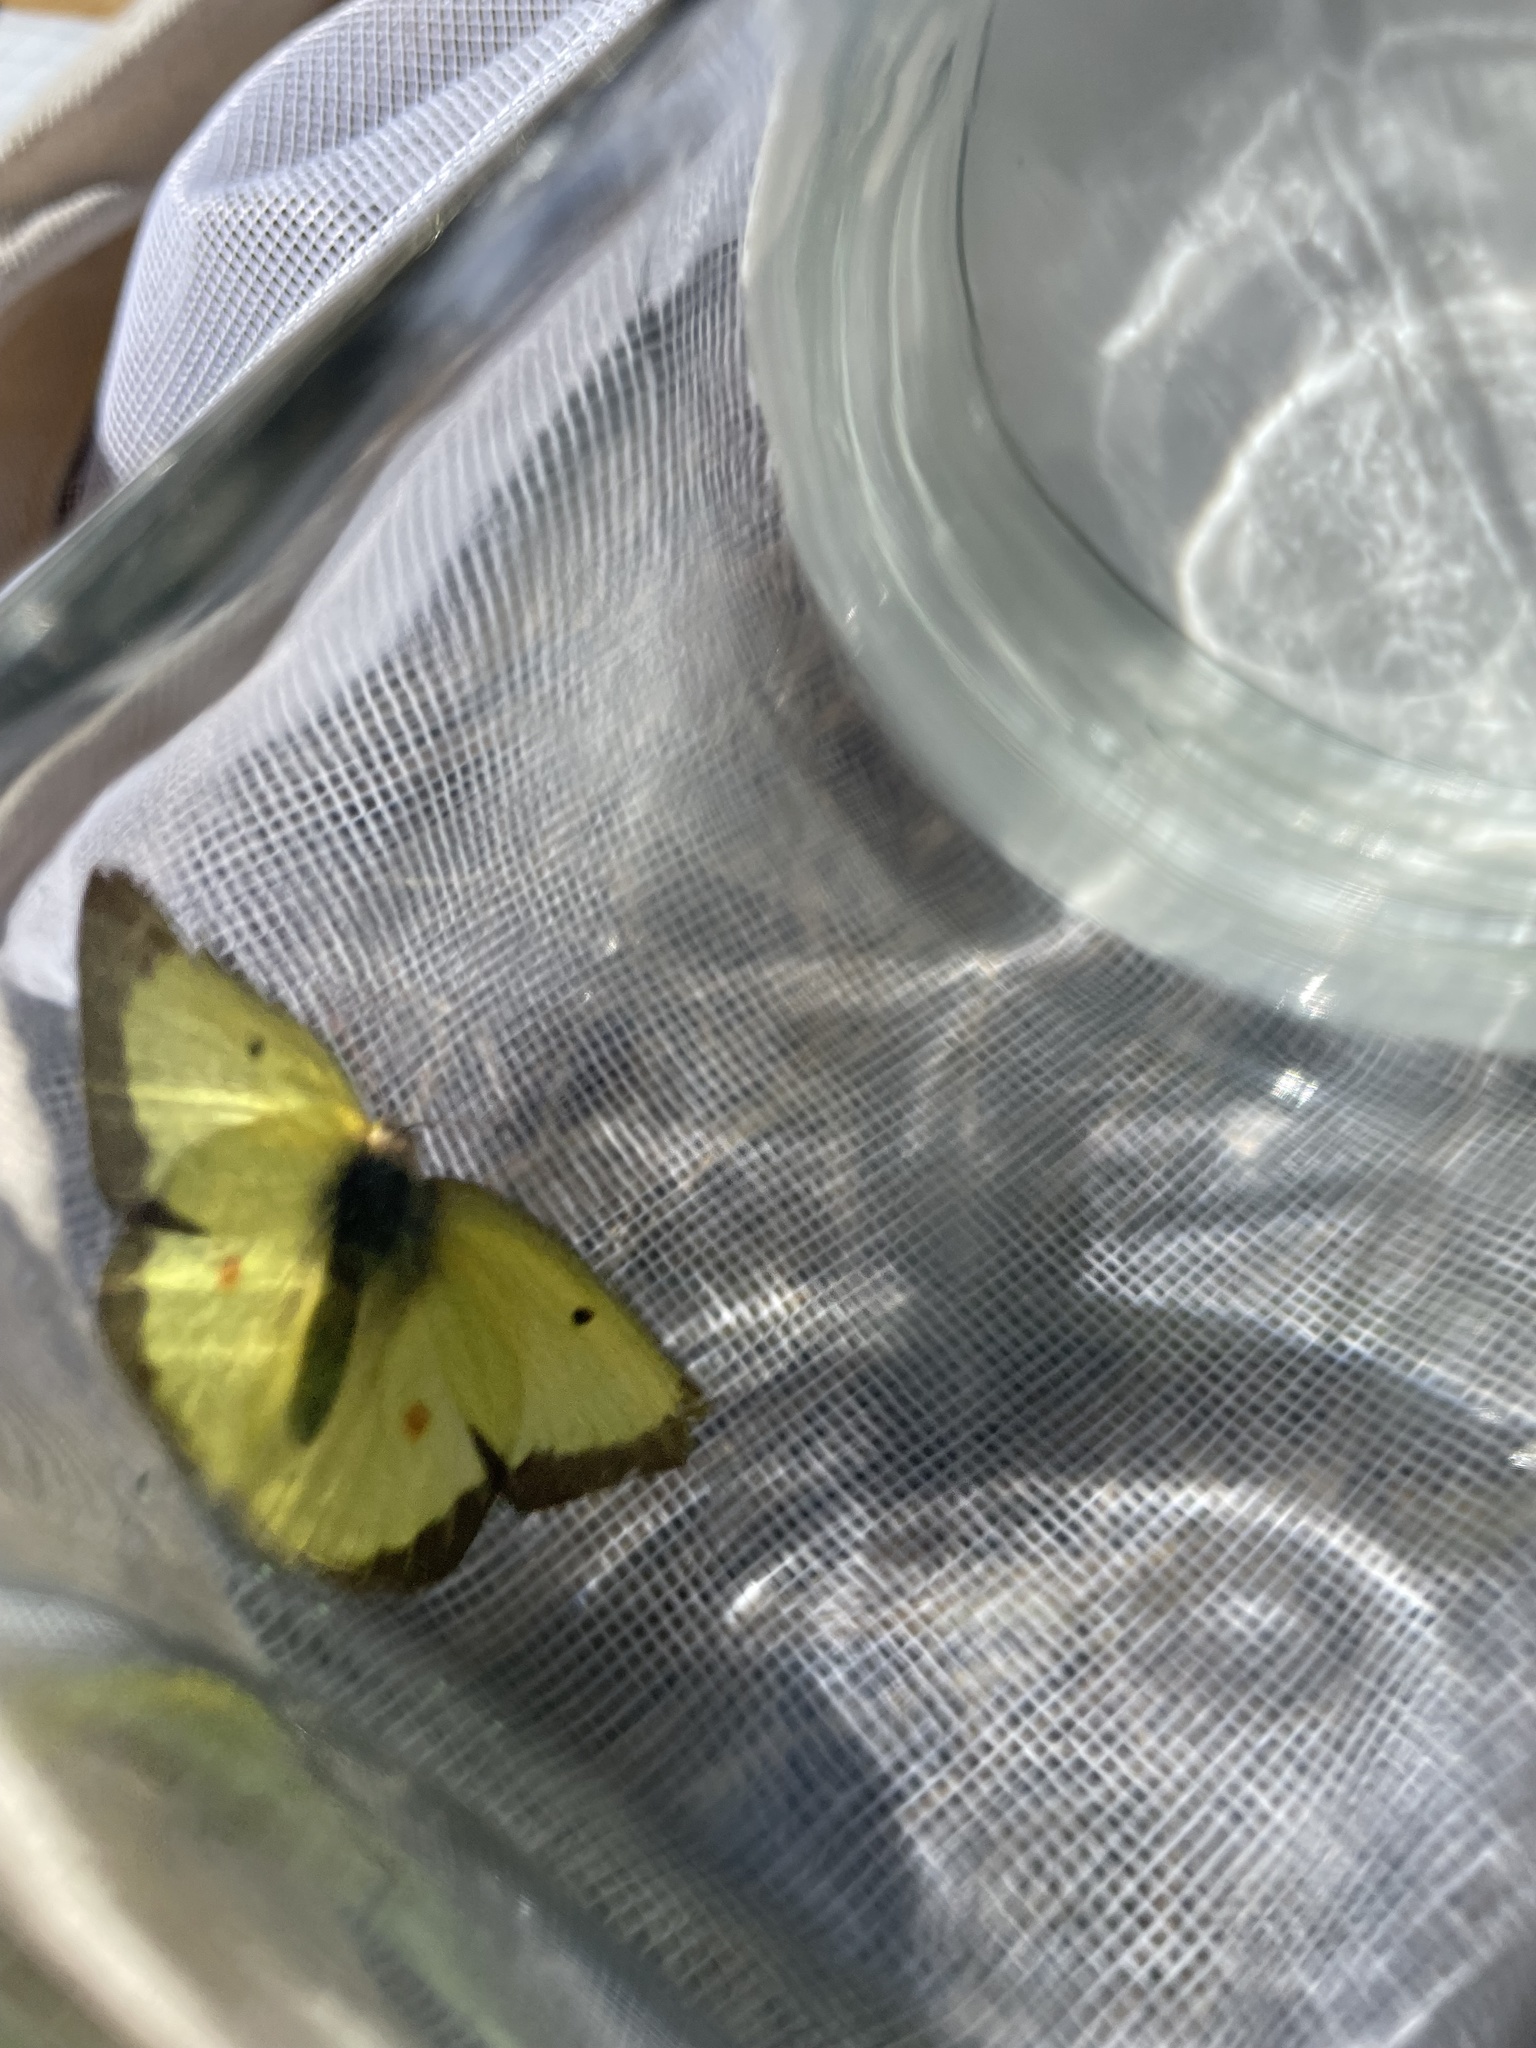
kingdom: Animalia
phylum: Arthropoda
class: Insecta
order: Lepidoptera
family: Pieridae
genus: Colias
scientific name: Colias philodice
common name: Clouded sulphur
